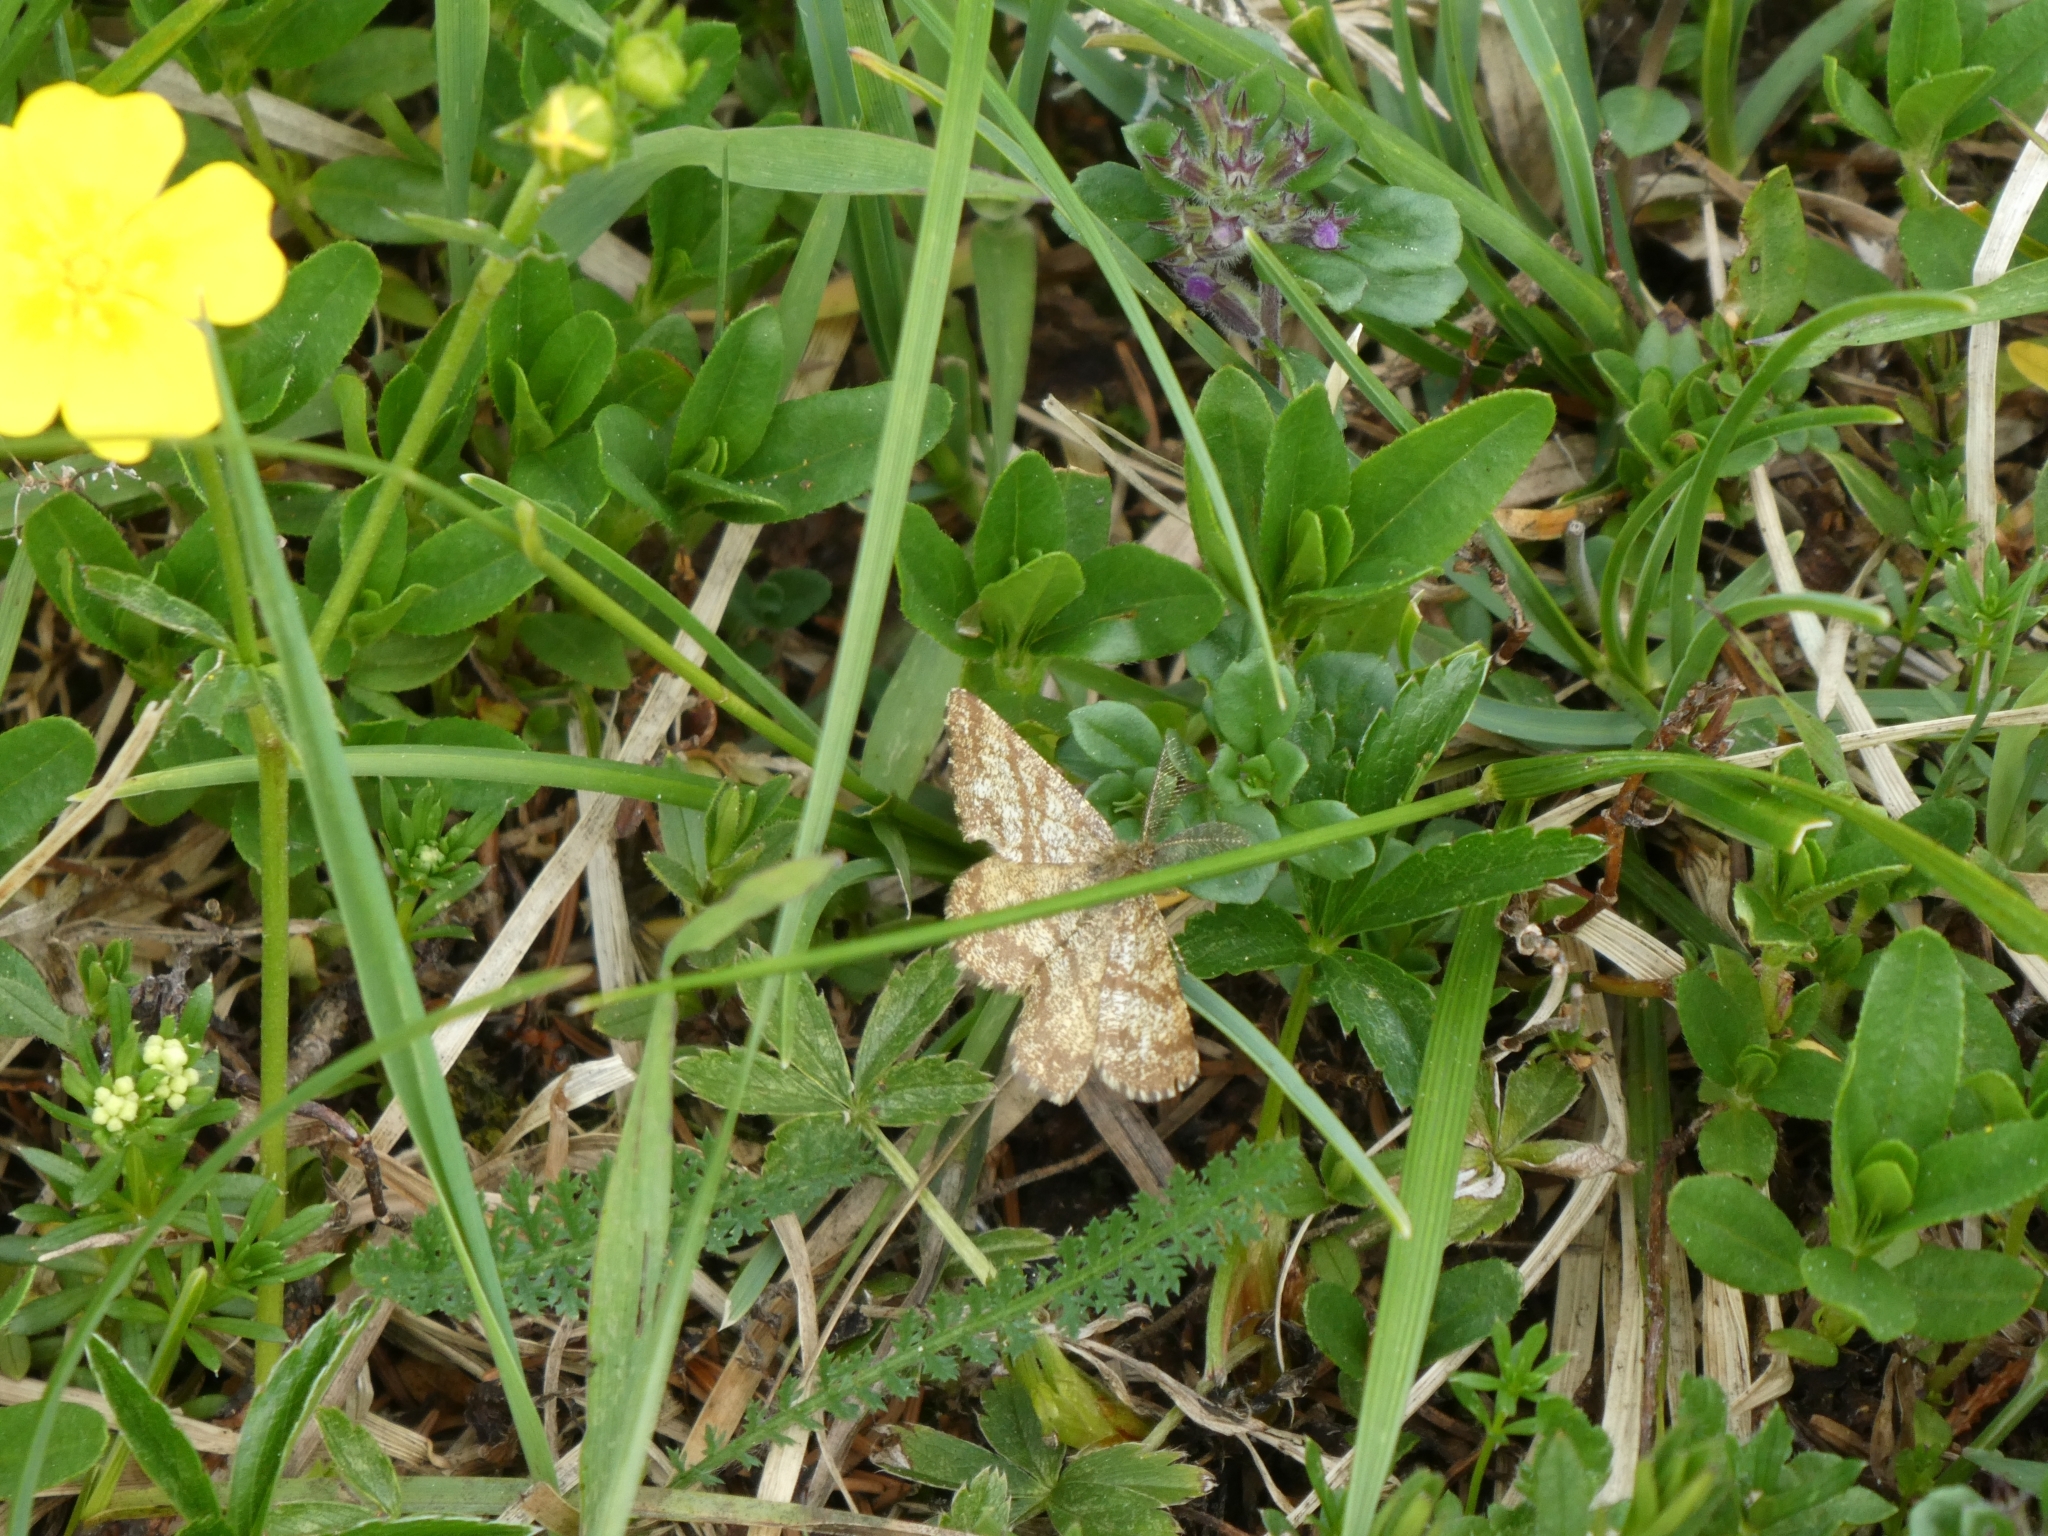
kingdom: Animalia
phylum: Arthropoda
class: Insecta
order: Lepidoptera
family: Geometridae
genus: Ematurga
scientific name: Ematurga atomaria
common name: Common heath
